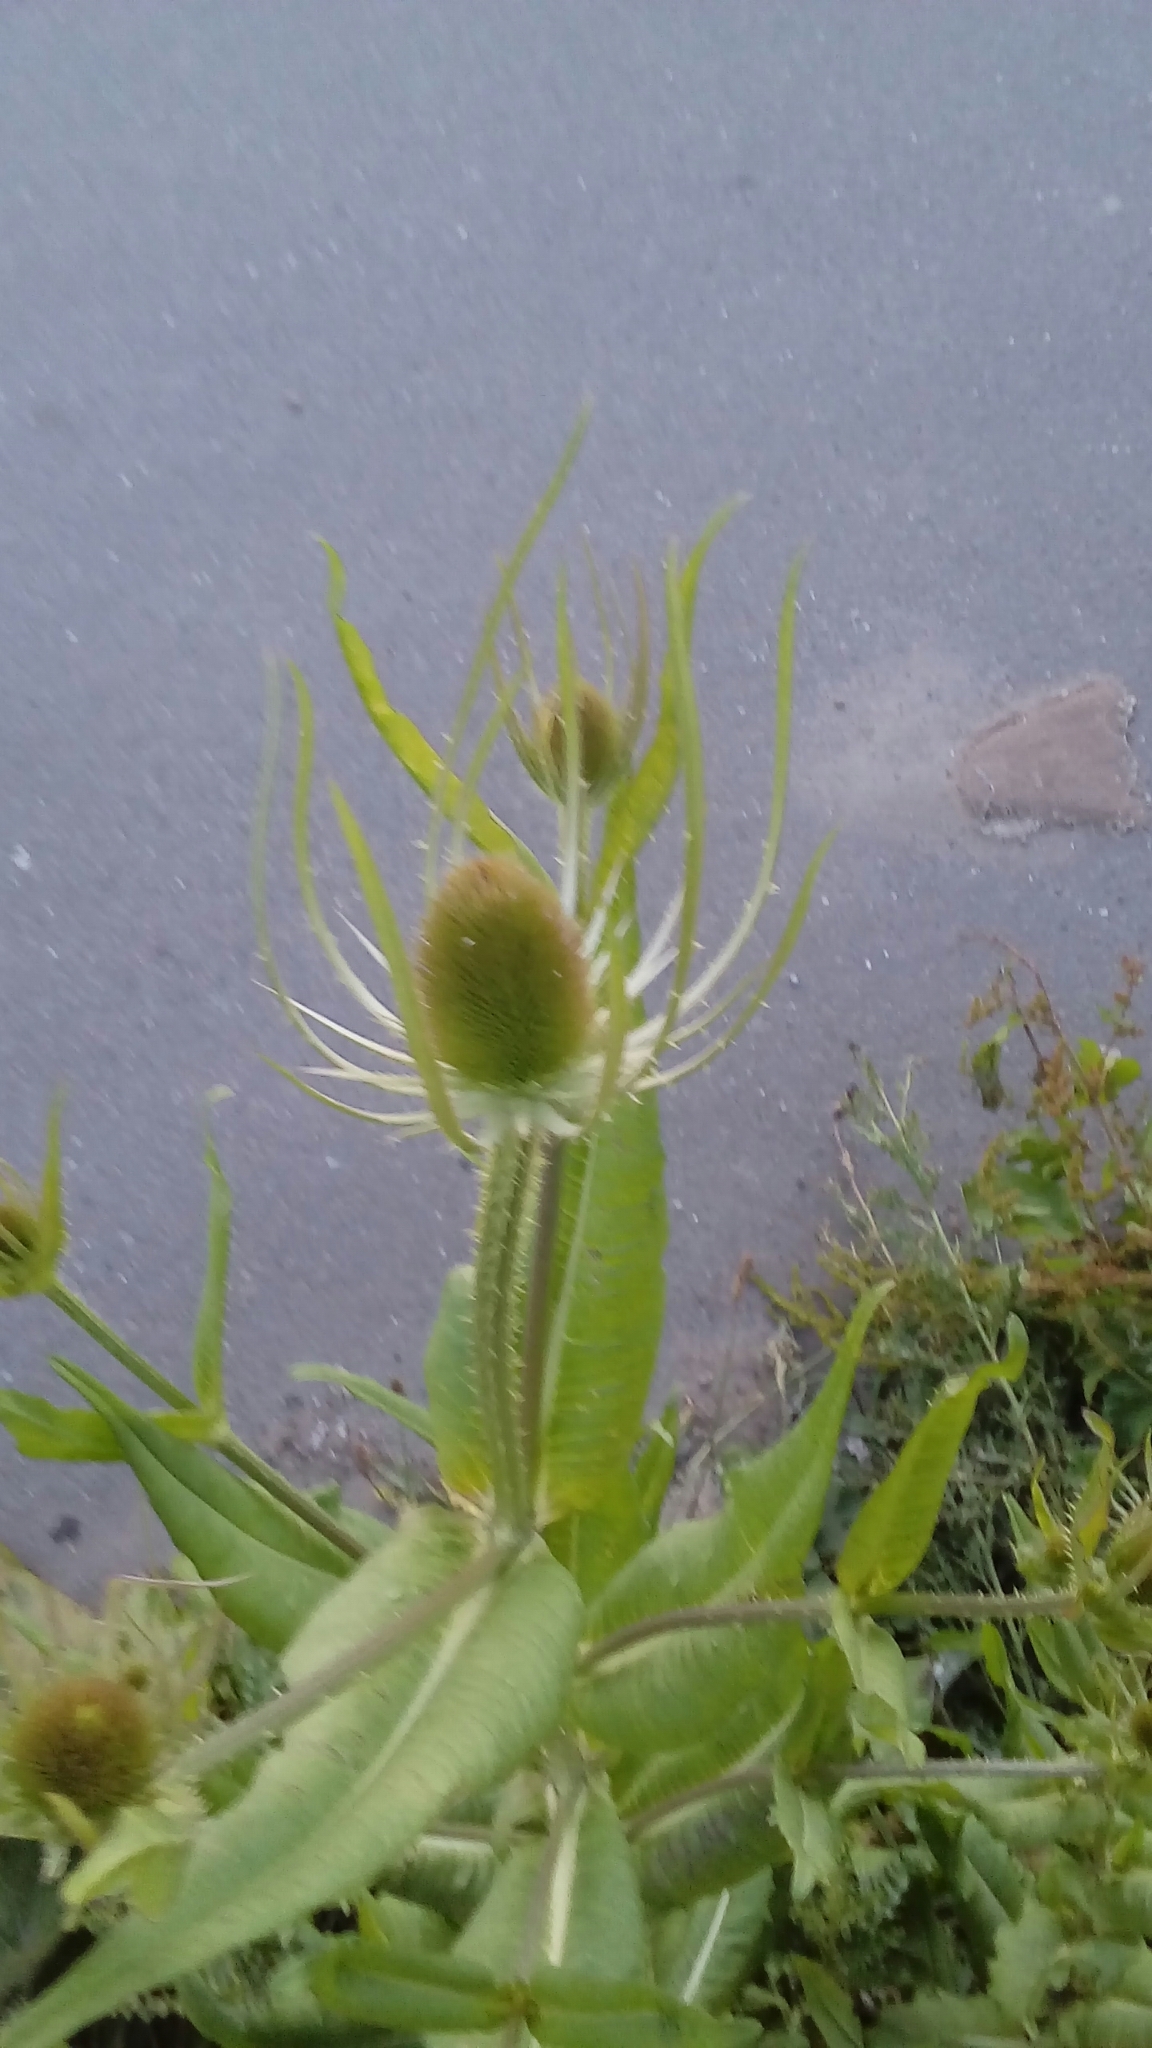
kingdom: Plantae
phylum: Tracheophyta
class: Magnoliopsida
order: Dipsacales
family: Caprifoliaceae
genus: Dipsacus
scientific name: Dipsacus fullonum
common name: Teasel
